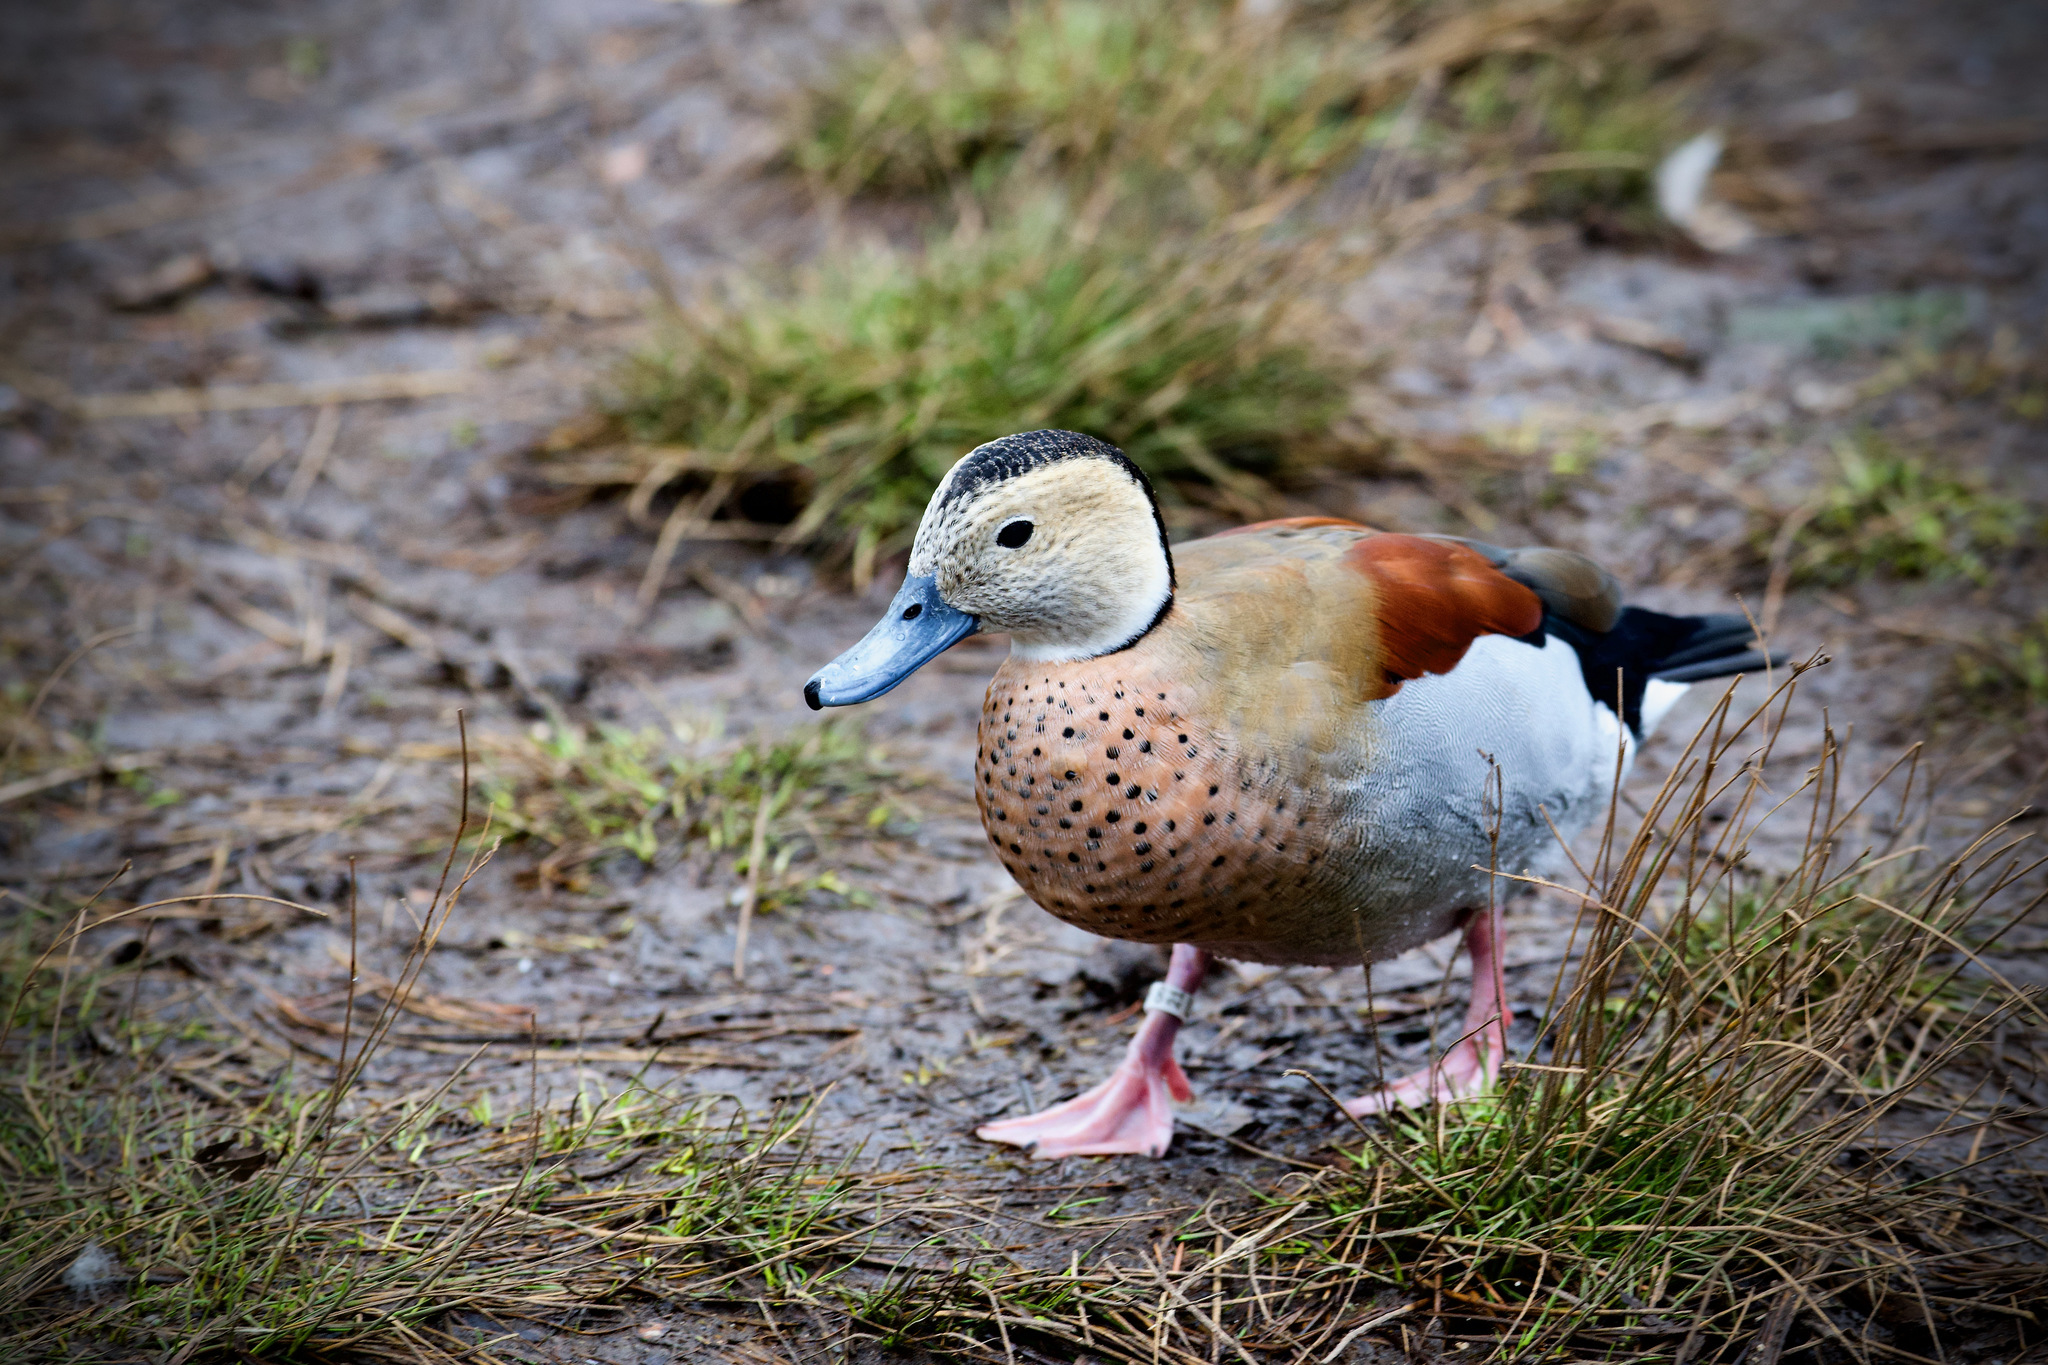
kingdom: Animalia
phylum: Chordata
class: Aves
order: Anseriformes
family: Anatidae
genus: Callonetta
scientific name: Callonetta leucophrys
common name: Ringed teal
